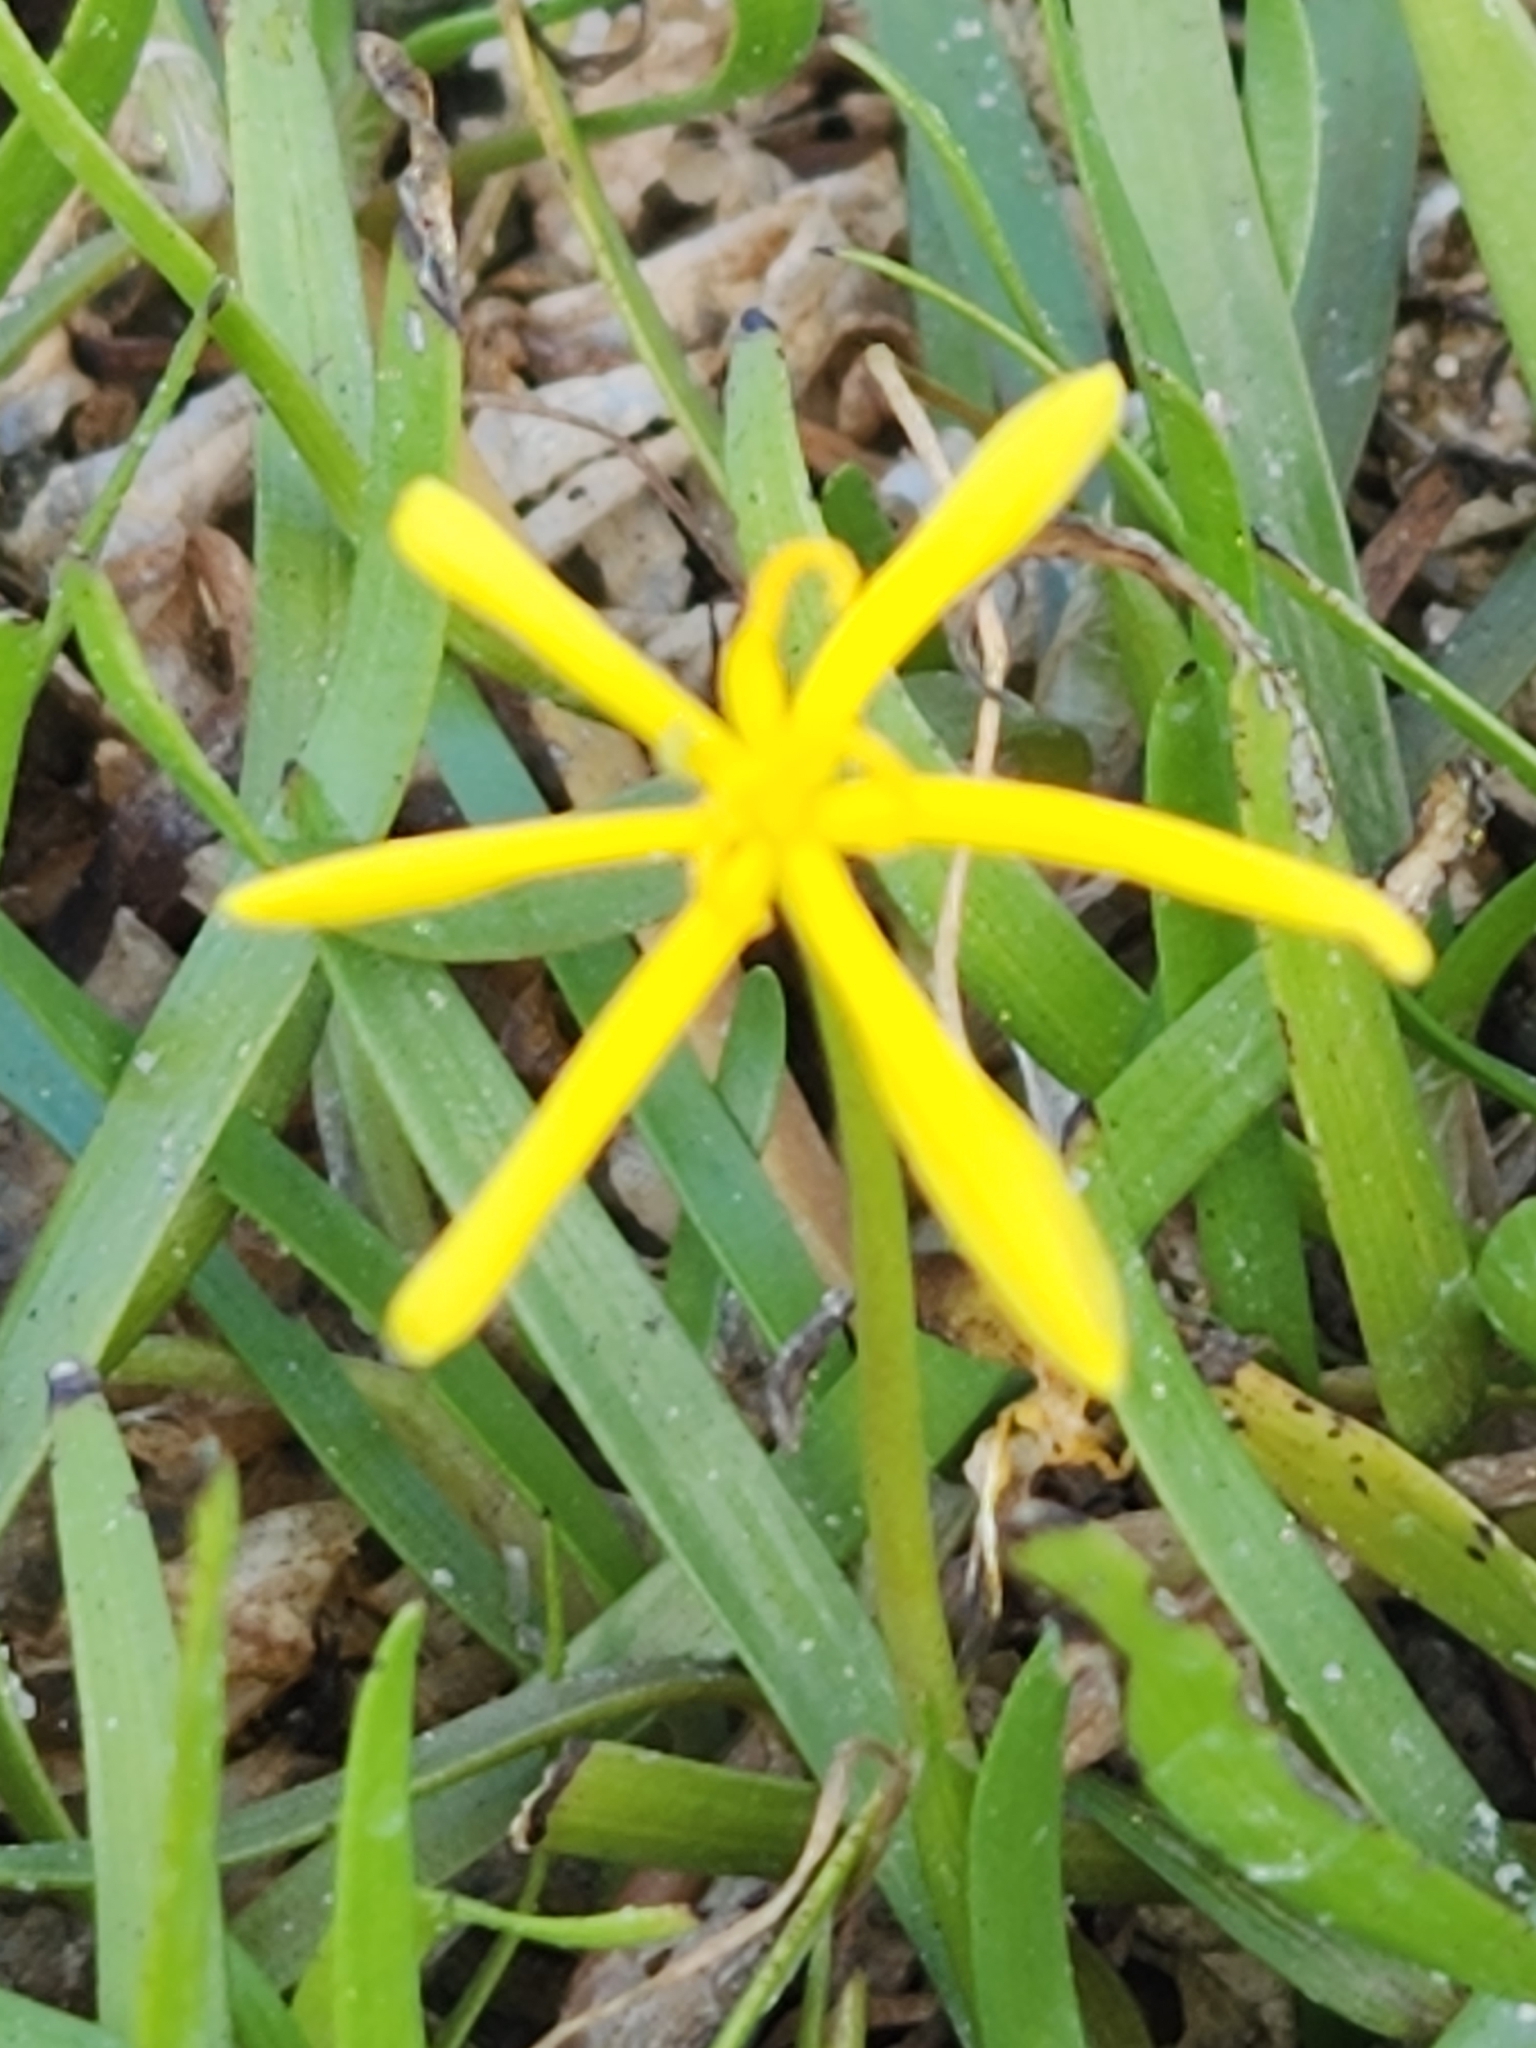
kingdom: Plantae
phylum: Tracheophyta
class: Liliopsida
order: Commelinales
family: Pontederiaceae
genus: Heteranthera
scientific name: Heteranthera dubia
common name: Grass-leaved mud plantain
